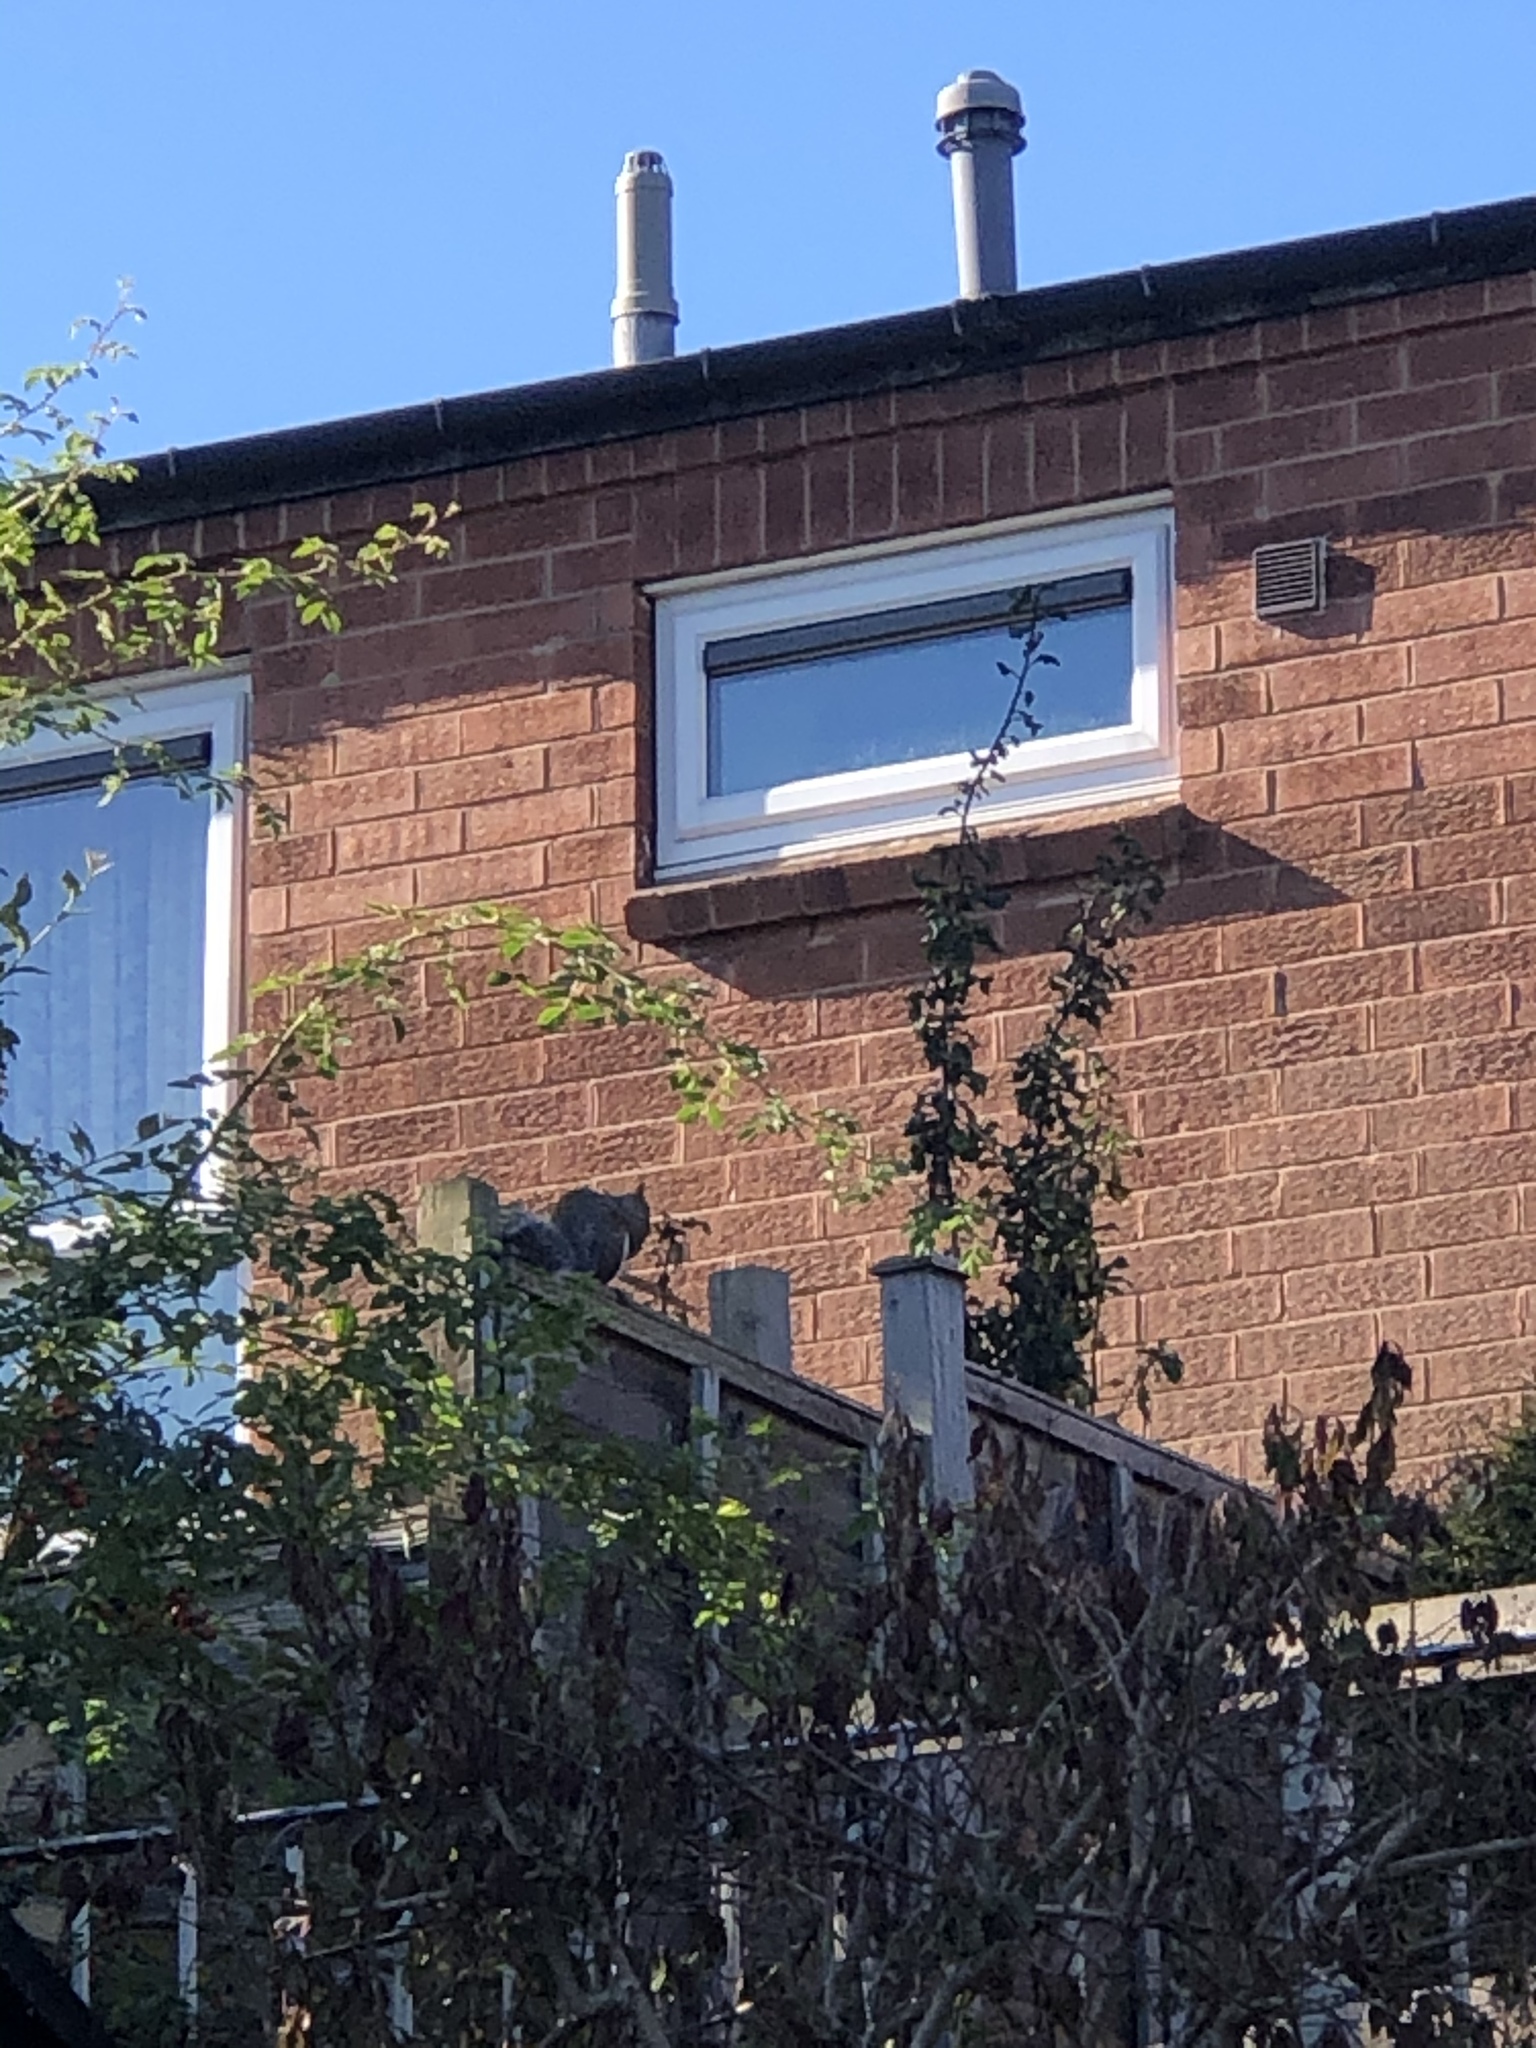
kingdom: Animalia
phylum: Chordata
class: Mammalia
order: Rodentia
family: Sciuridae
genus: Sciurus
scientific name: Sciurus carolinensis
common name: Eastern gray squirrel
